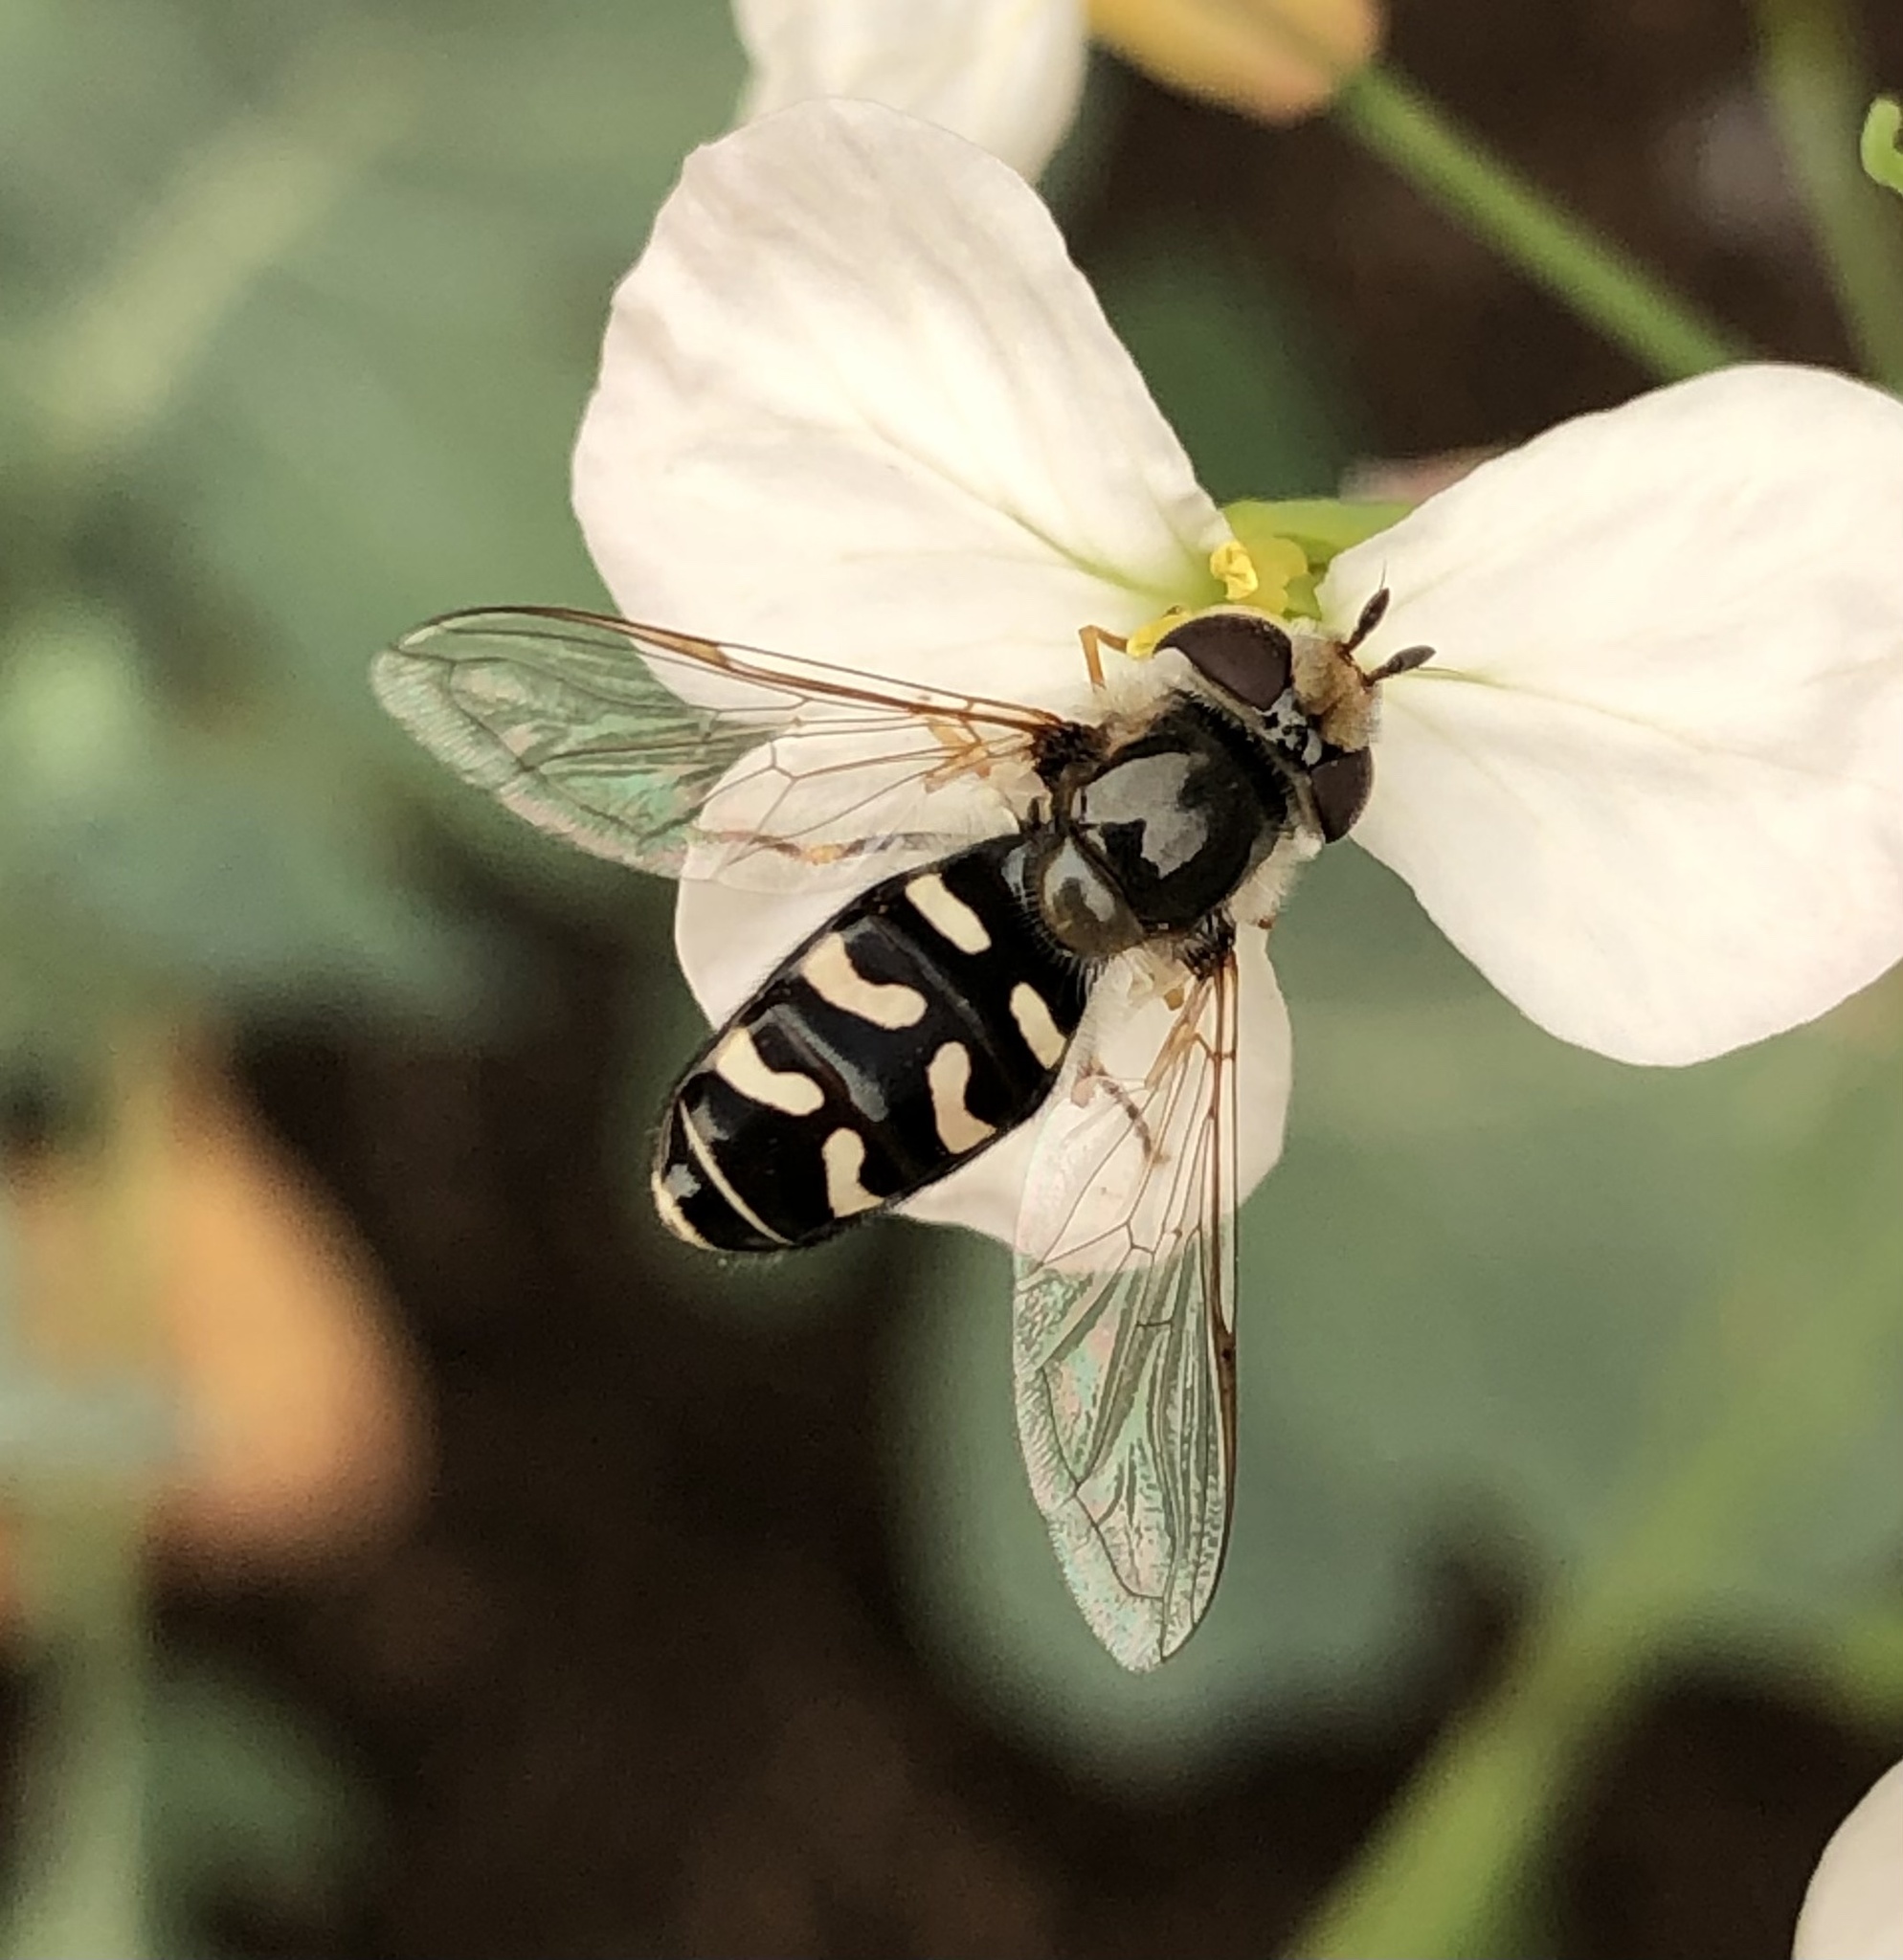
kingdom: Animalia
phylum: Arthropoda
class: Insecta
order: Diptera
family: Syrphidae
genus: Scaeva
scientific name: Scaeva affinis
